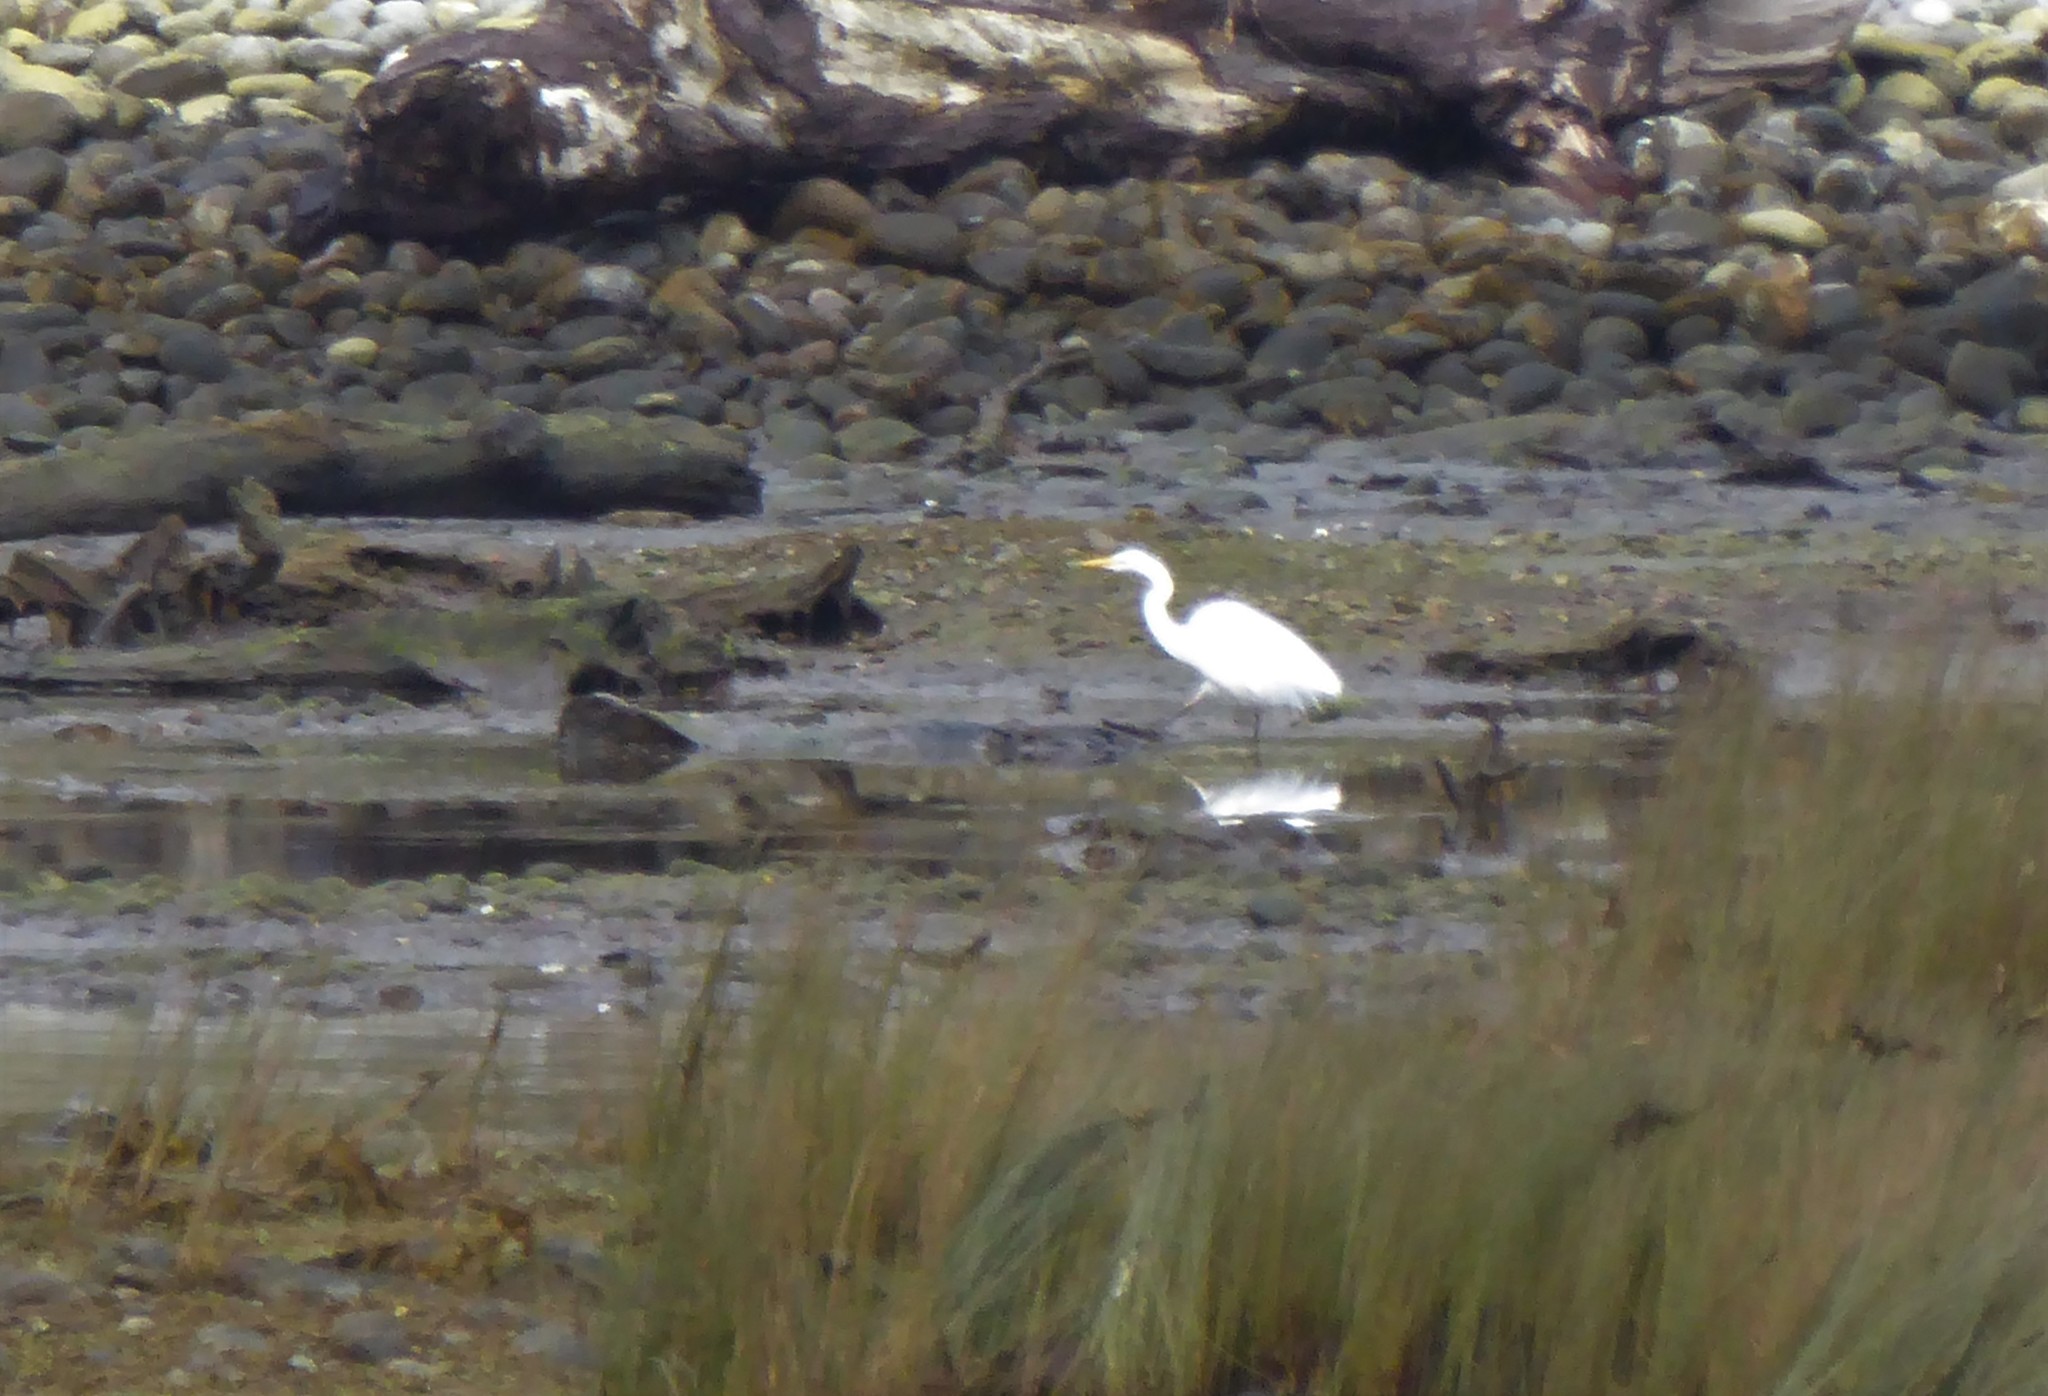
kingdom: Animalia
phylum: Chordata
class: Aves
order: Pelecaniformes
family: Ardeidae
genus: Ardea
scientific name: Ardea modesta
